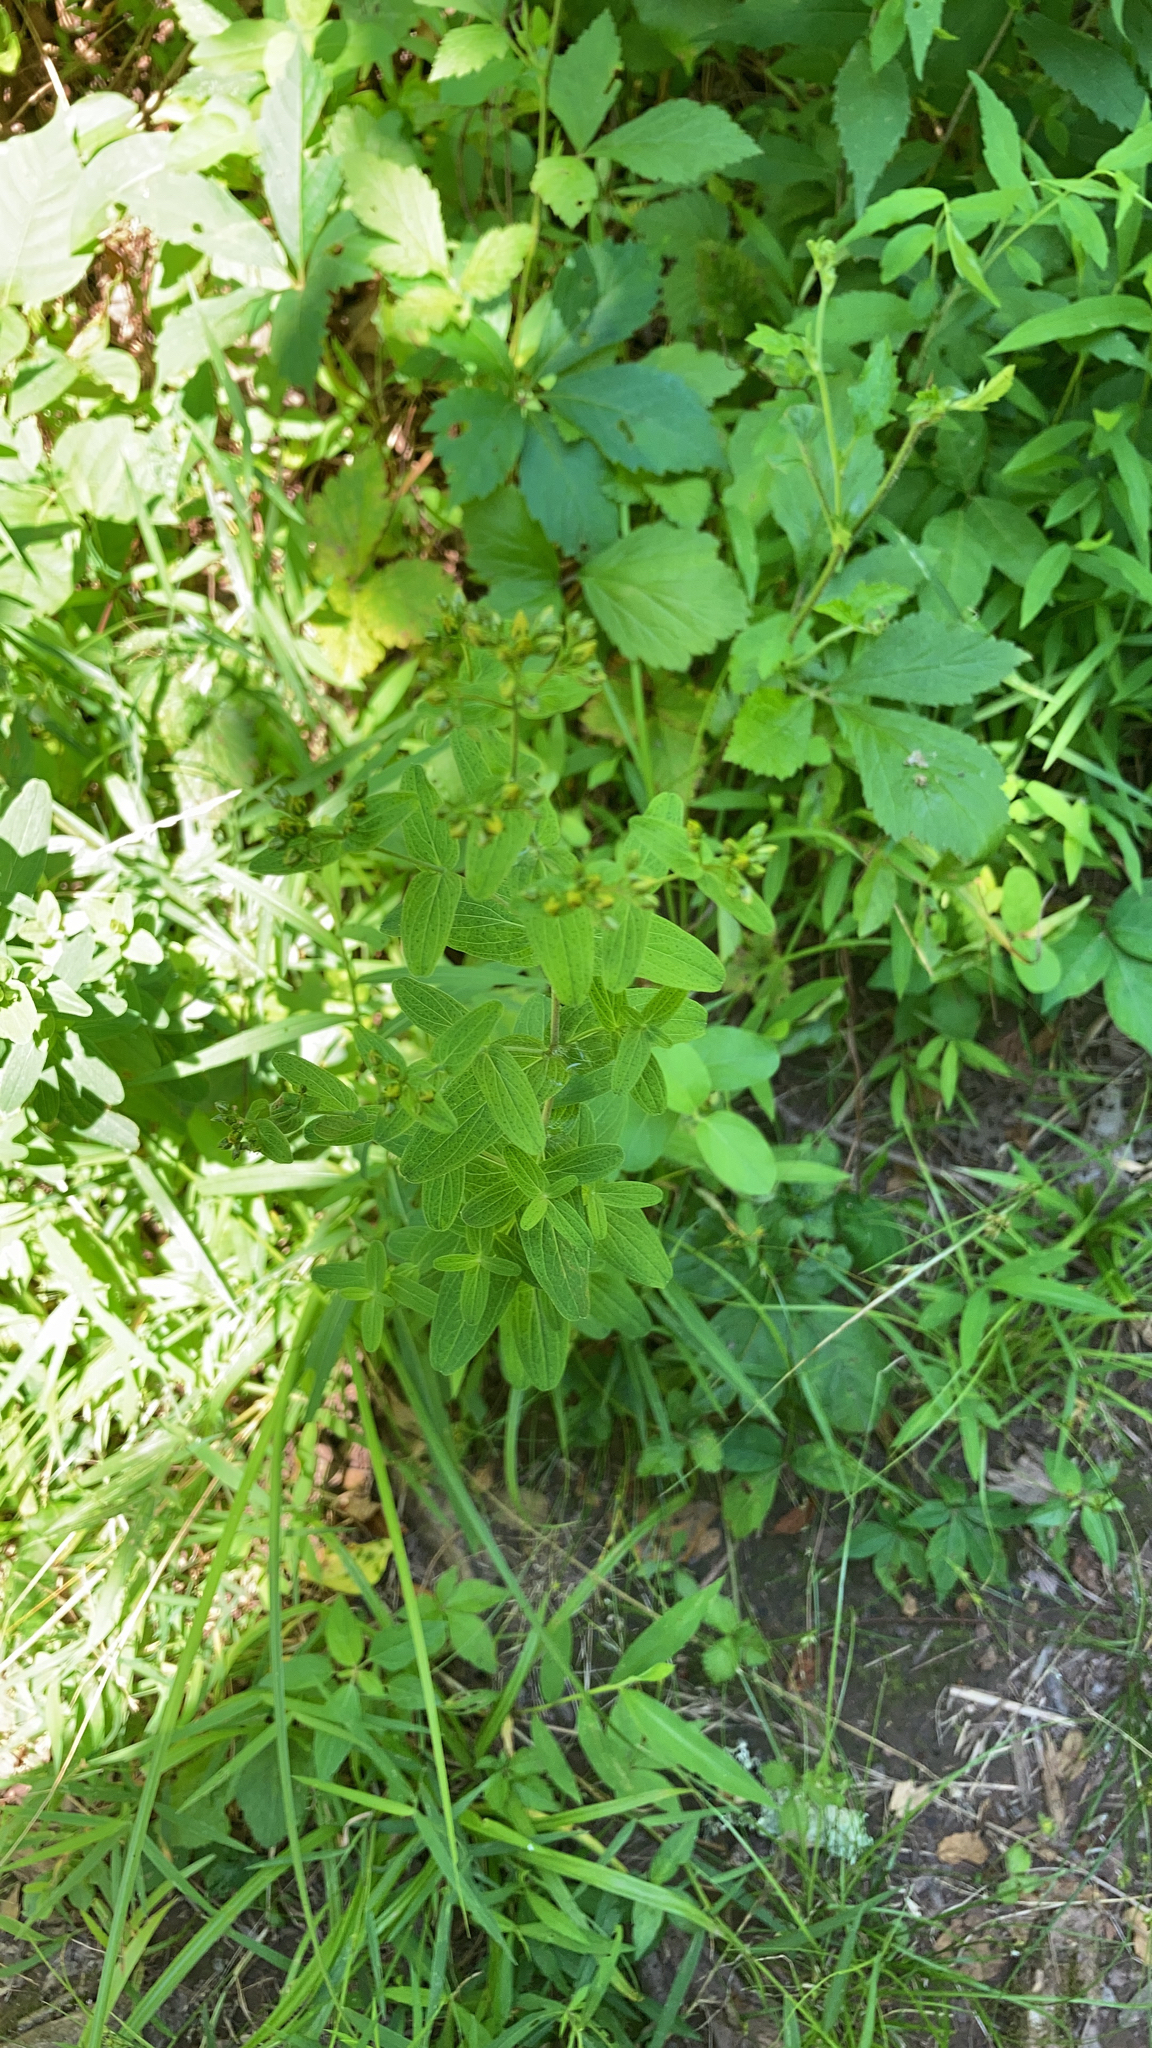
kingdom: Plantae
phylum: Tracheophyta
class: Magnoliopsida
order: Malpighiales
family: Hypericaceae
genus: Hypericum
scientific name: Hypericum punctatum
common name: Spotted st. john's-wort
